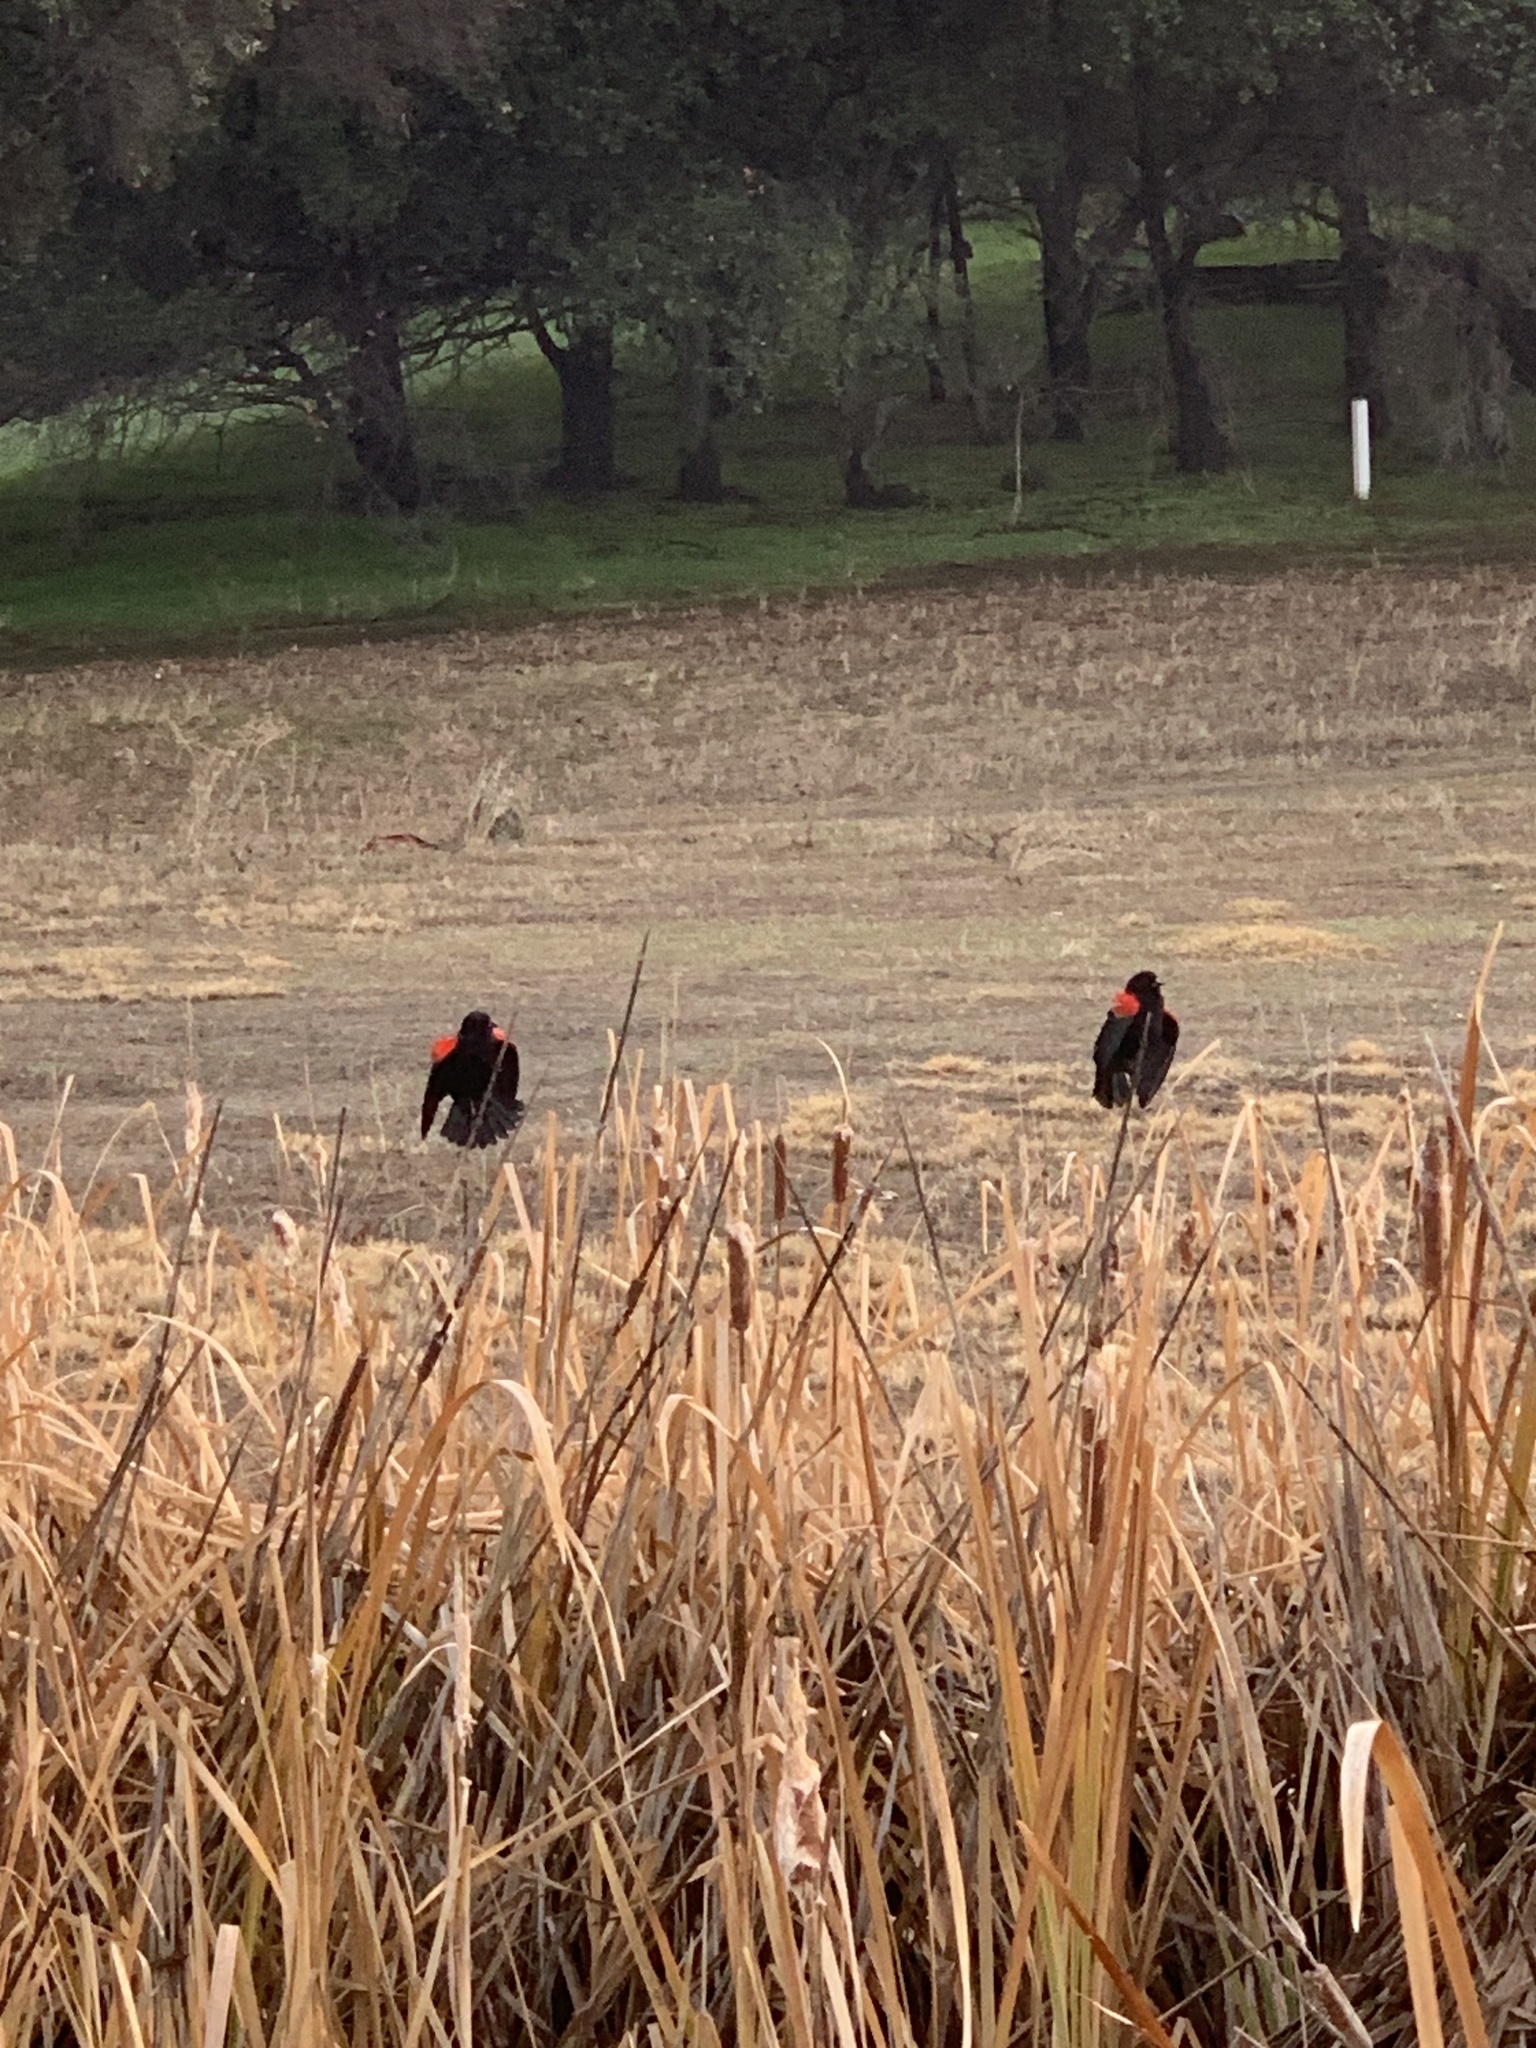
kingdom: Animalia
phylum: Chordata
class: Aves
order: Passeriformes
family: Icteridae
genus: Agelaius
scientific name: Agelaius phoeniceus
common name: Red-winged blackbird
